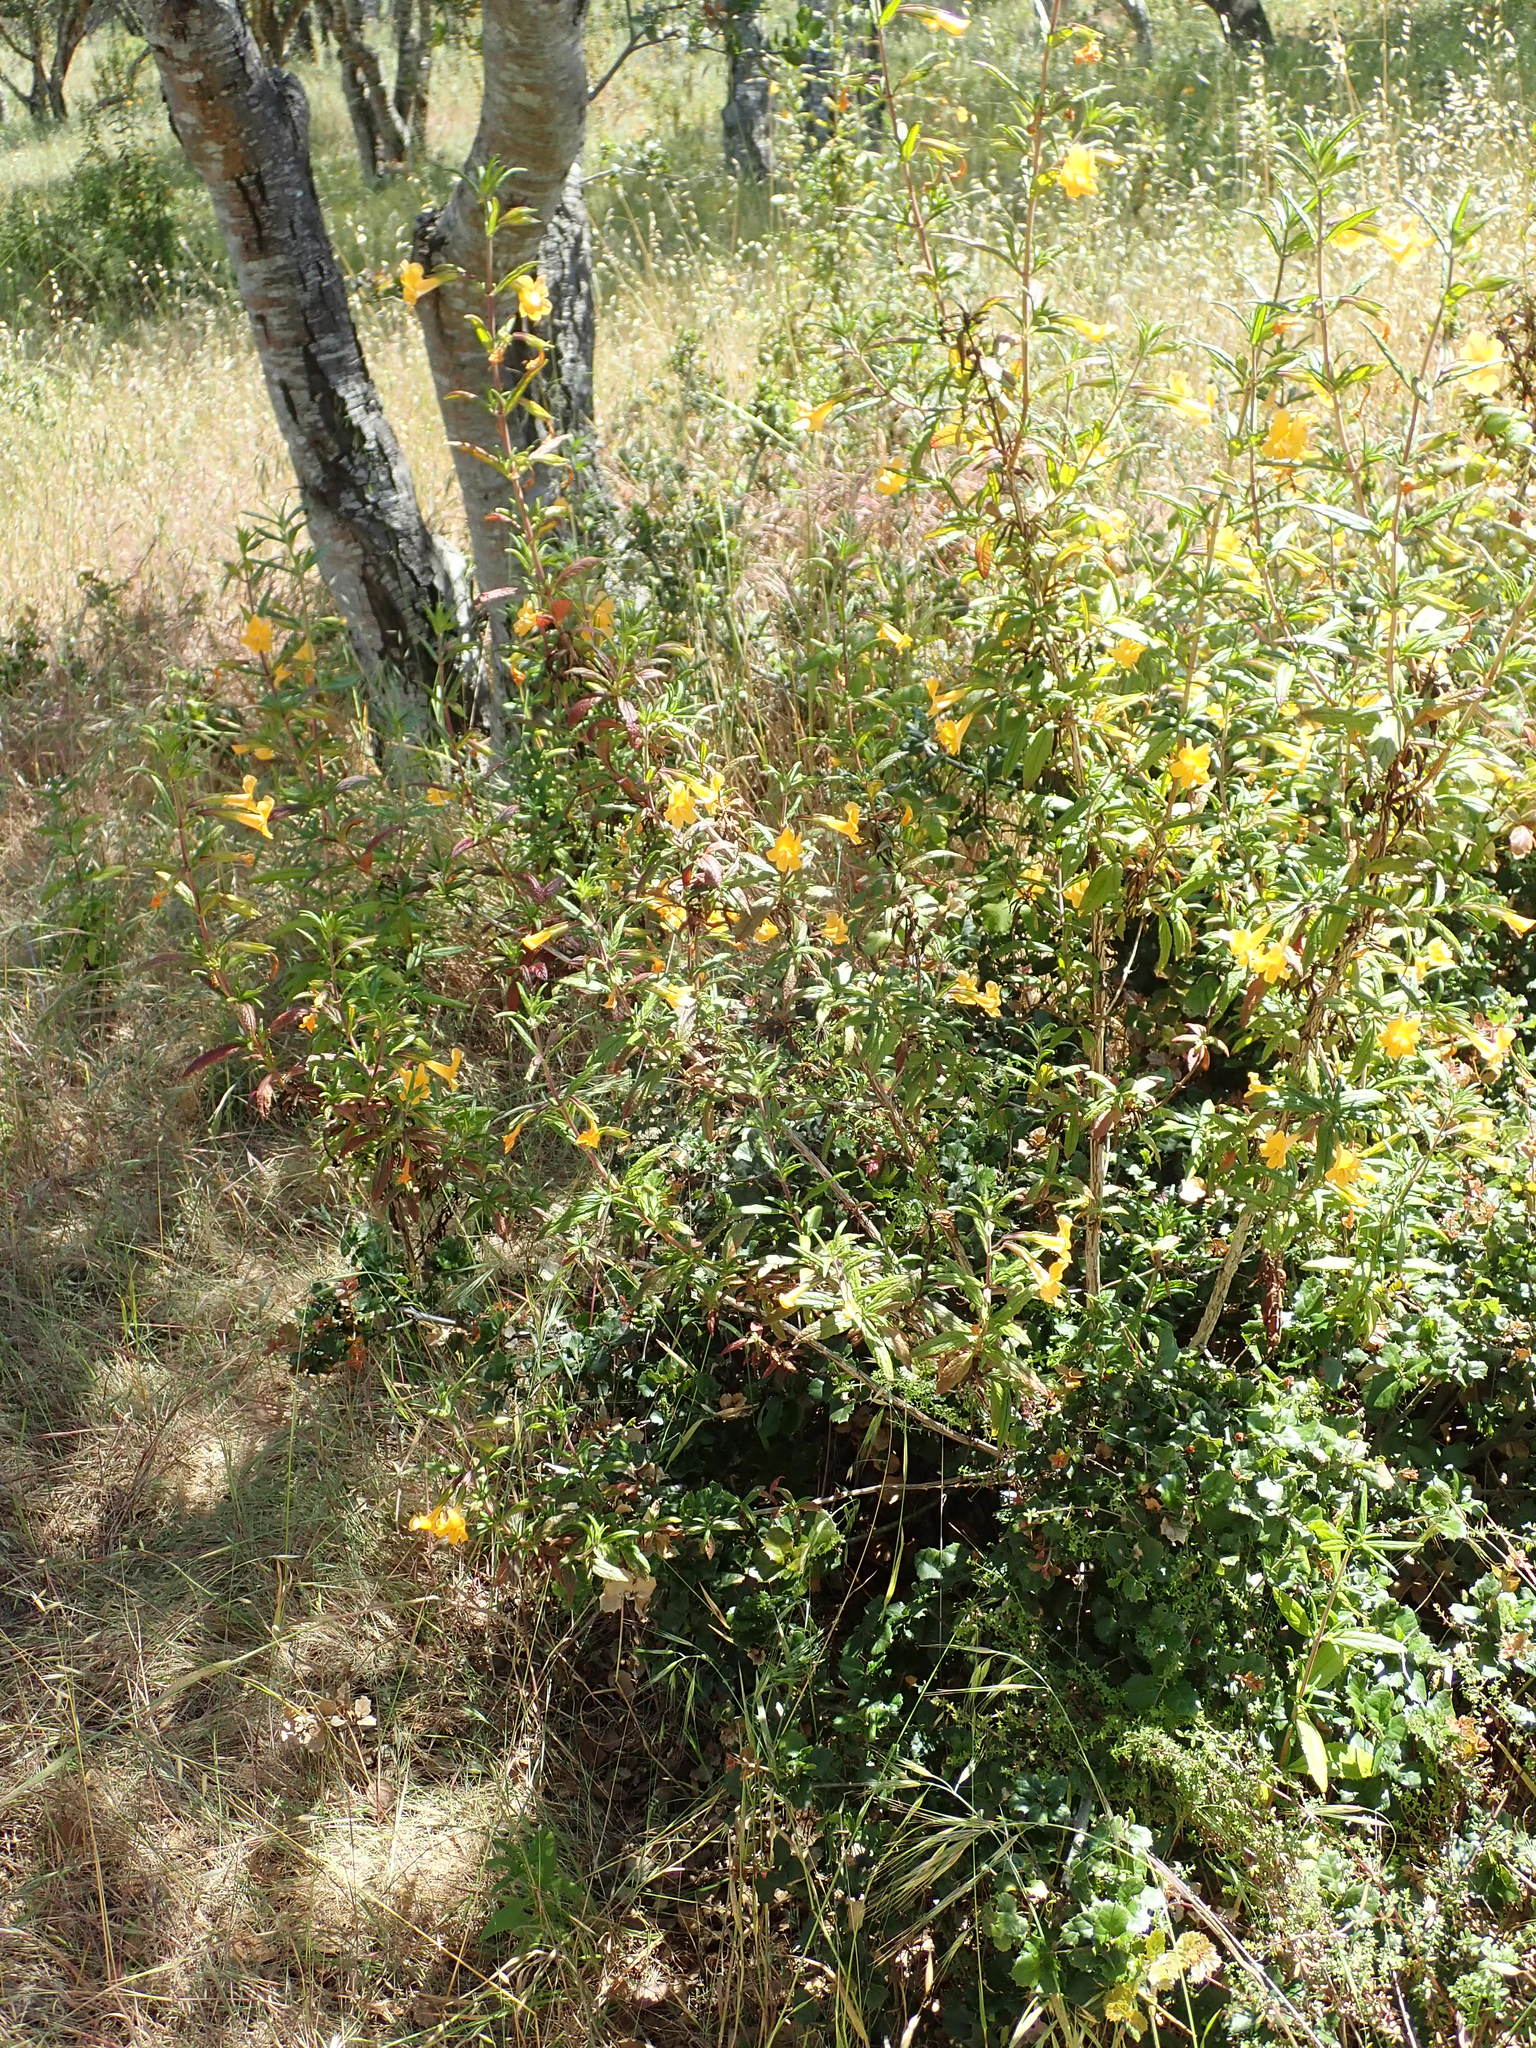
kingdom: Plantae
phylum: Tracheophyta
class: Magnoliopsida
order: Lamiales
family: Phrymaceae
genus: Diplacus
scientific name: Diplacus aurantiacus
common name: Bush monkey-flower
